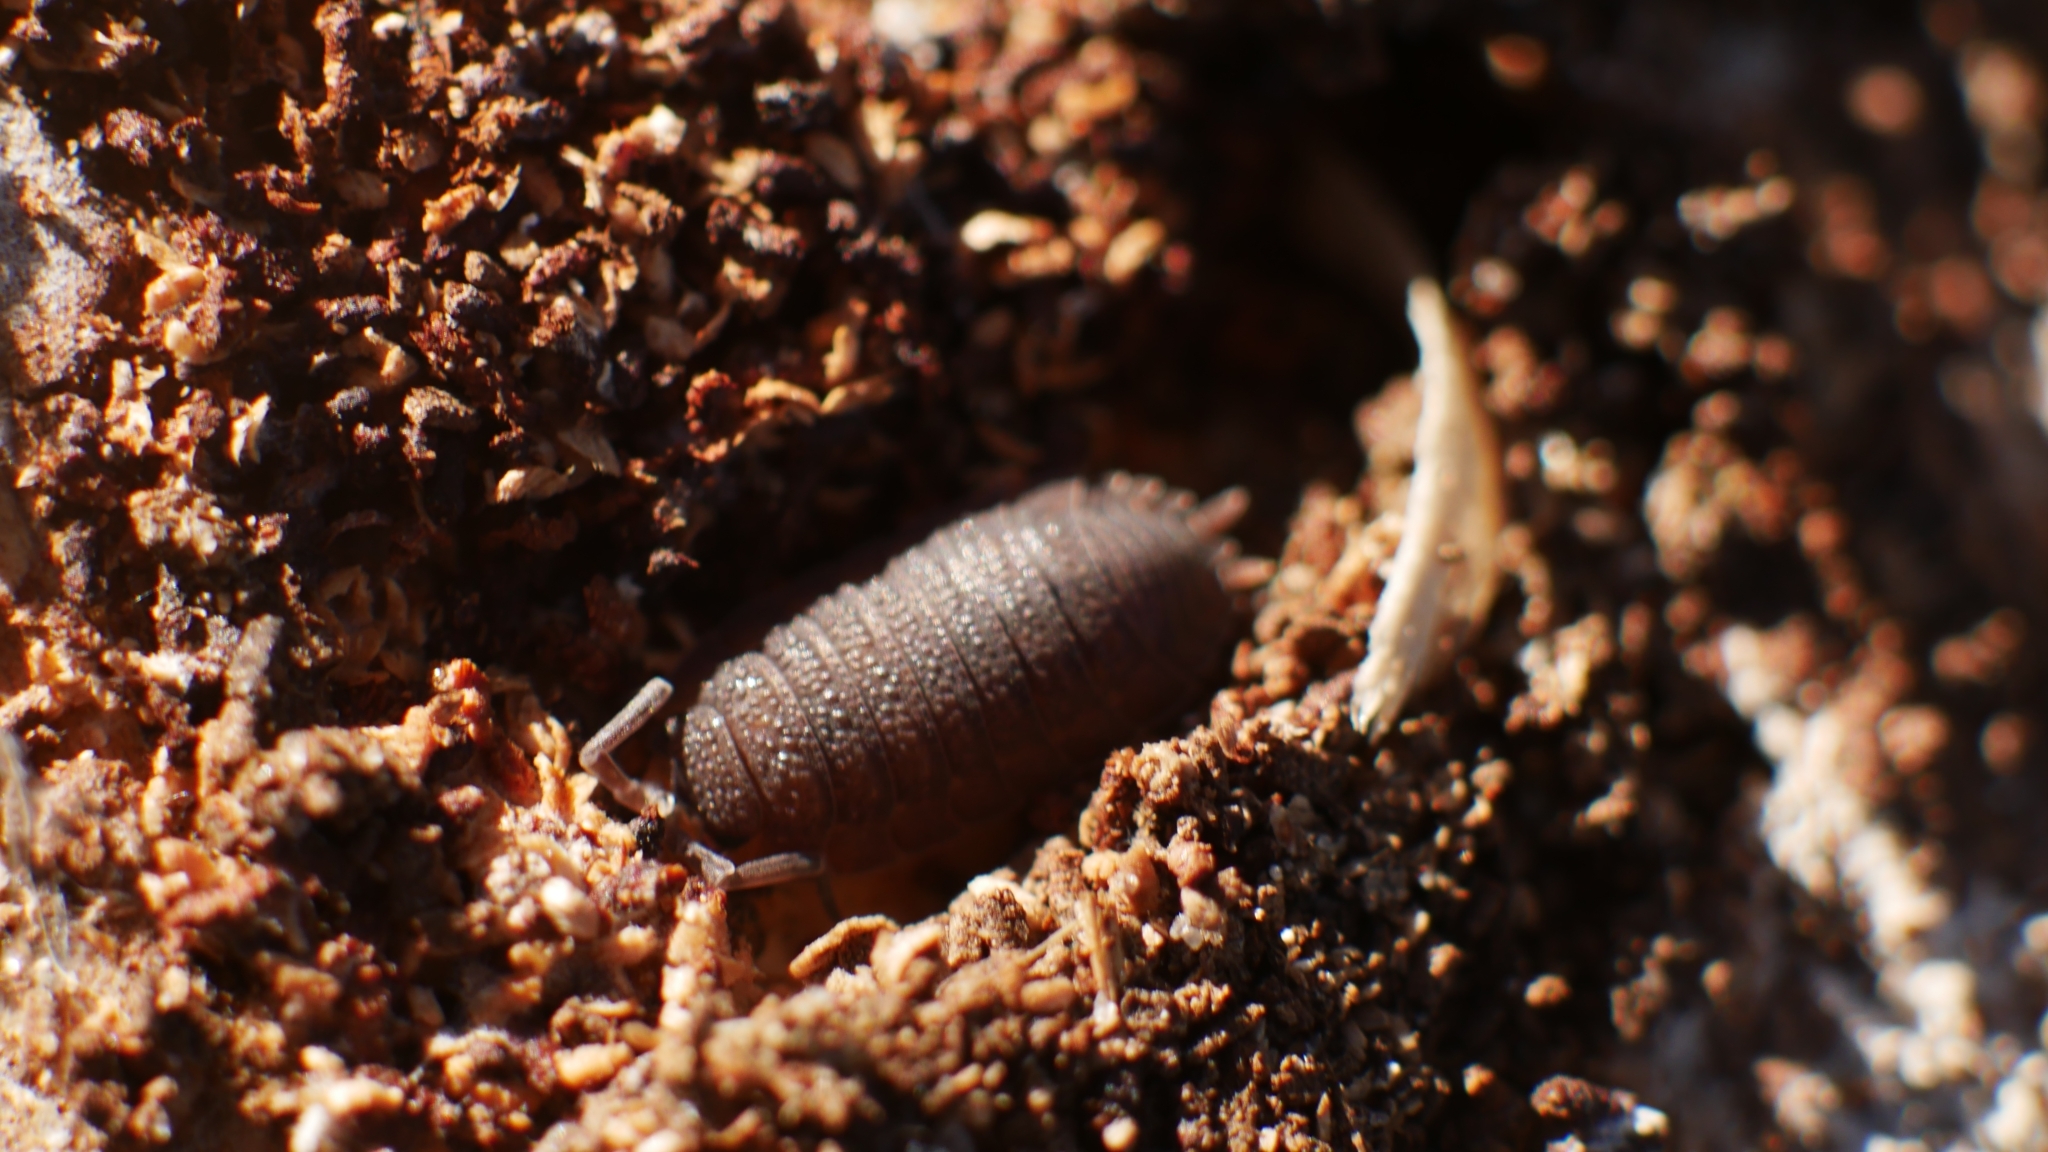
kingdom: Animalia
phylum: Arthropoda
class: Malacostraca
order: Isopoda
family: Porcellionidae
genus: Porcellio
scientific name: Porcellio scaber
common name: Common rough woodlouse
